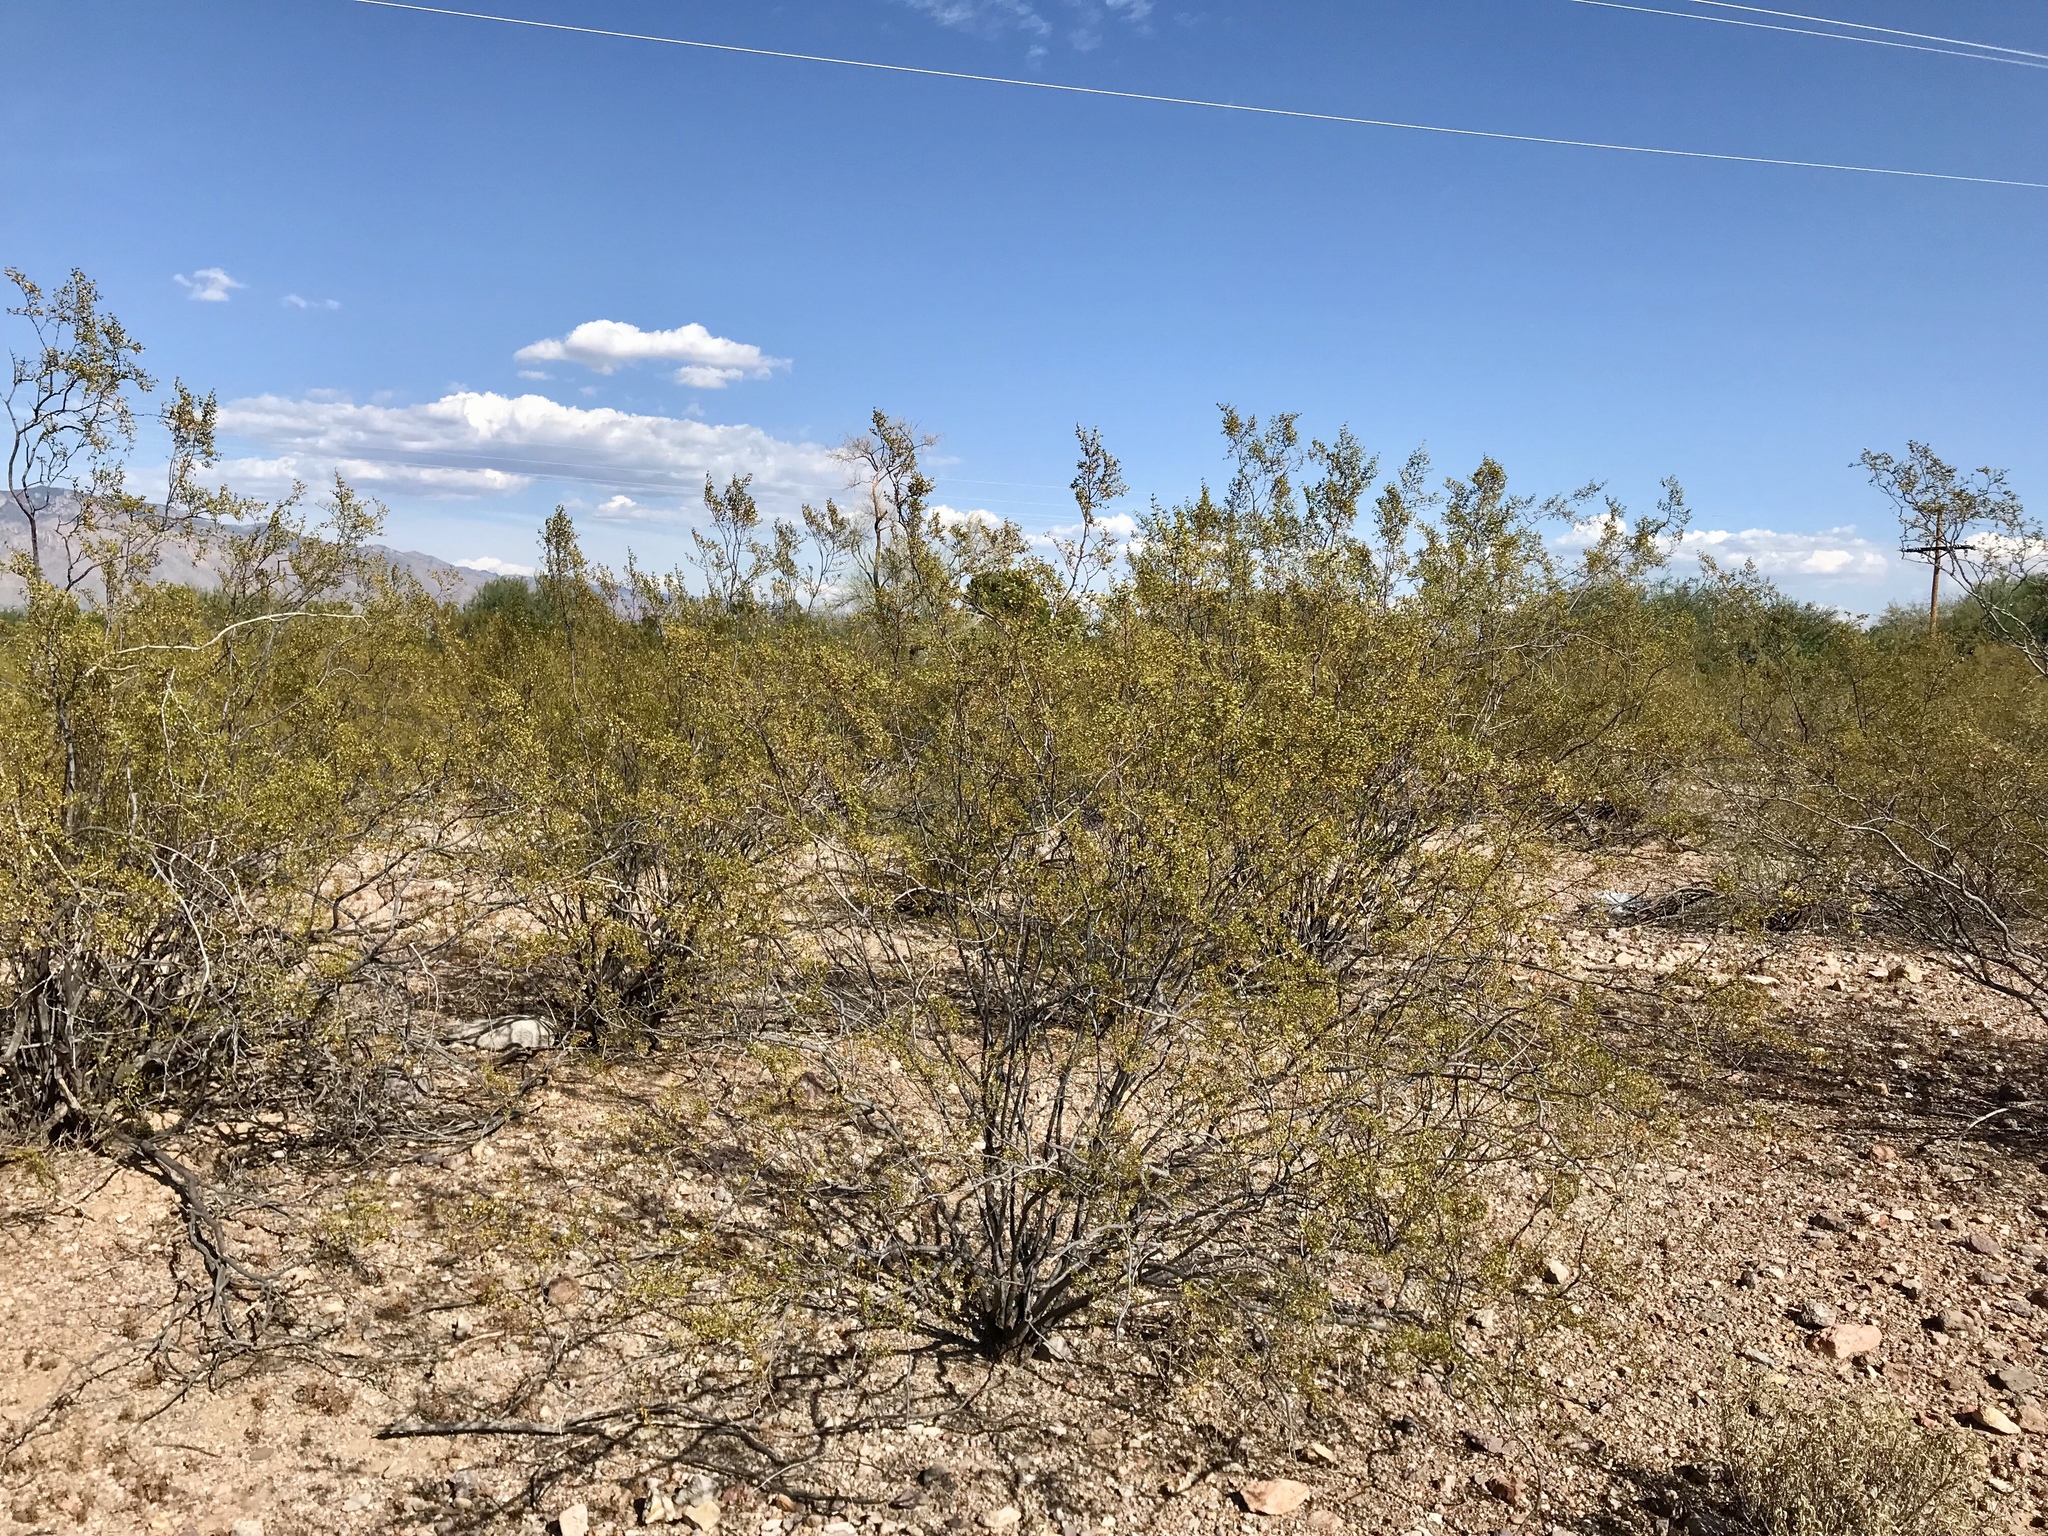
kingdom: Plantae
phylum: Tracheophyta
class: Magnoliopsida
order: Zygophyllales
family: Zygophyllaceae
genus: Larrea
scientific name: Larrea tridentata
